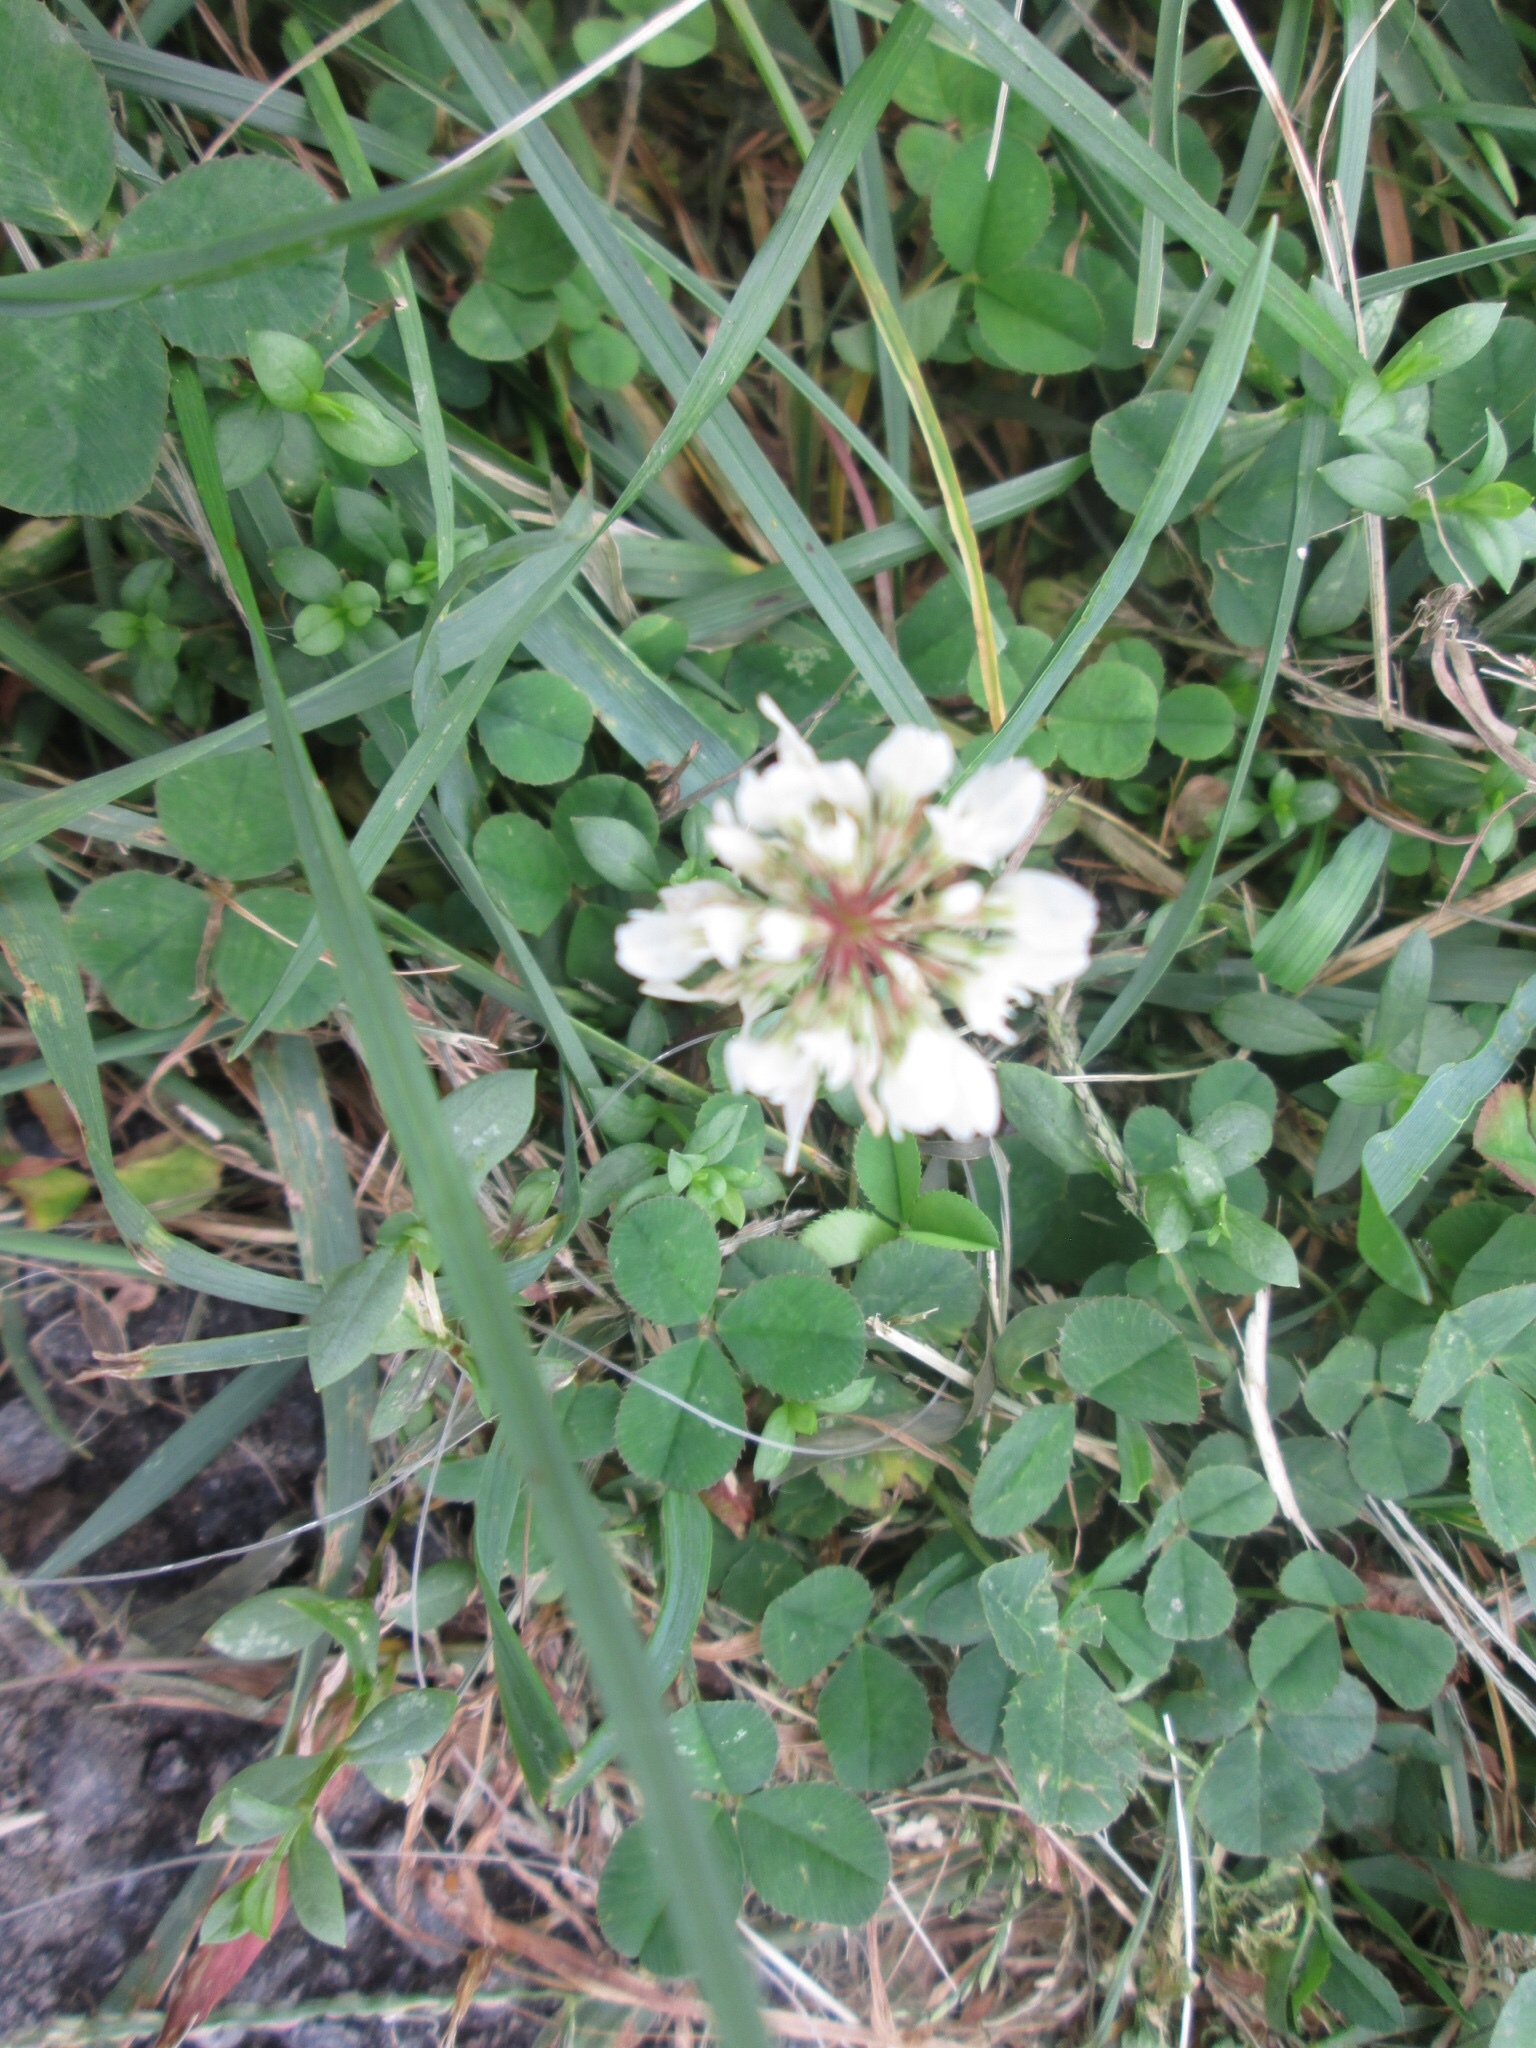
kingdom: Plantae
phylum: Tracheophyta
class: Magnoliopsida
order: Fabales
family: Fabaceae
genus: Trifolium
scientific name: Trifolium repens
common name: White clover
